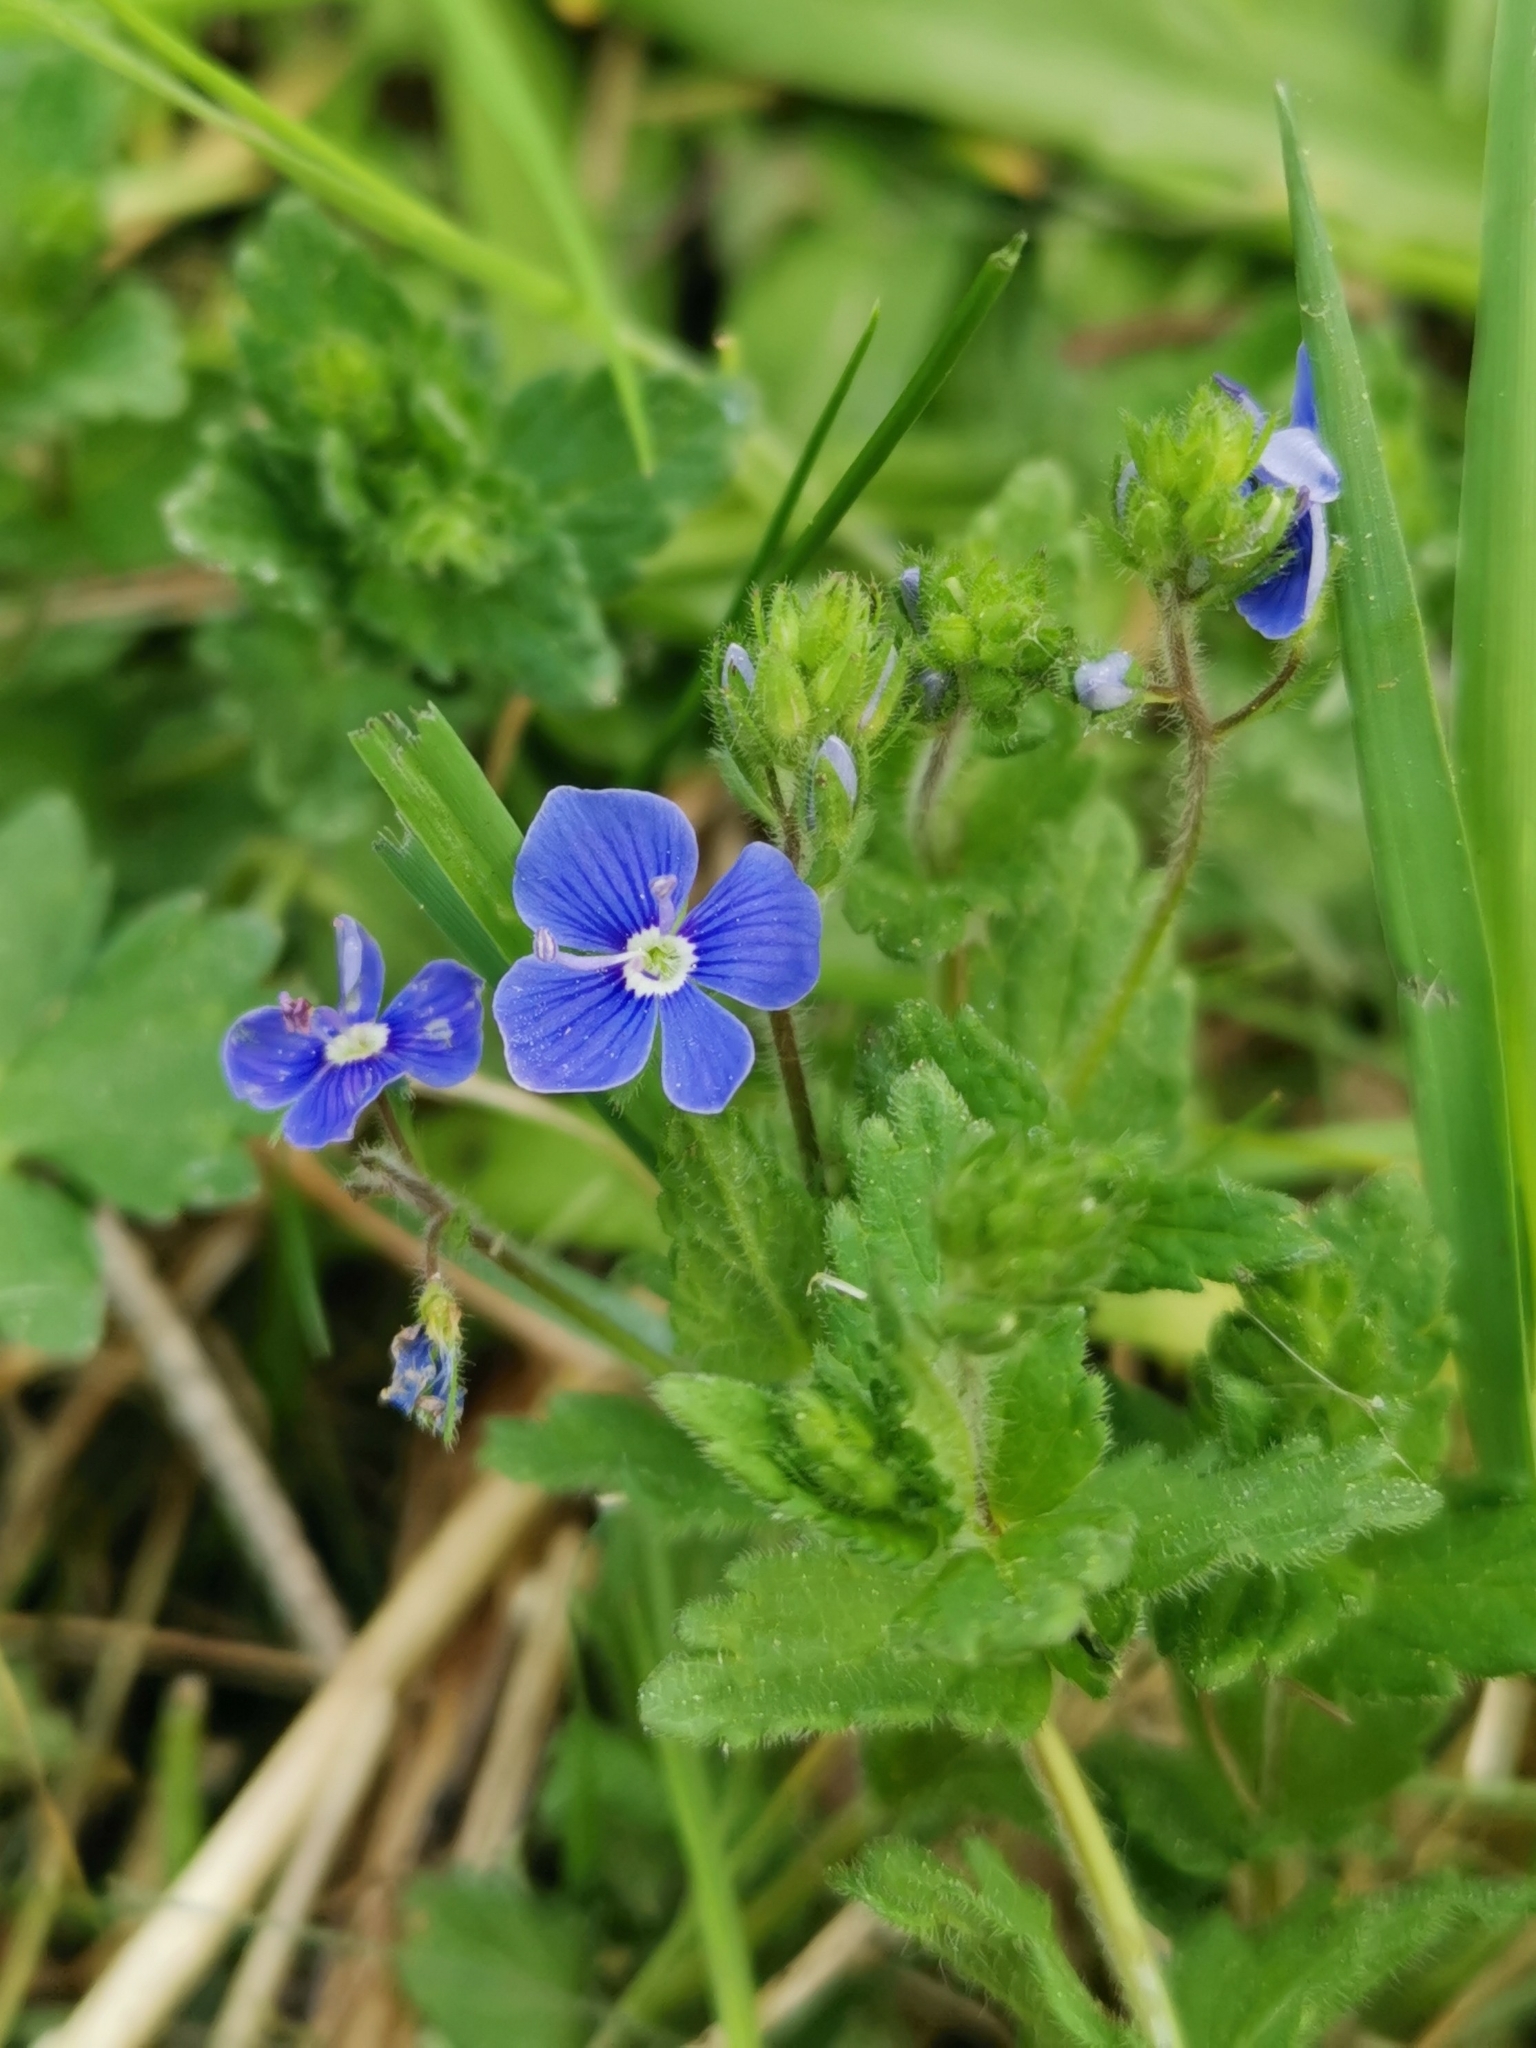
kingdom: Plantae
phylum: Tracheophyta
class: Magnoliopsida
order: Lamiales
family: Plantaginaceae
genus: Veronica
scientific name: Veronica chamaedrys
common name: Germander speedwell
